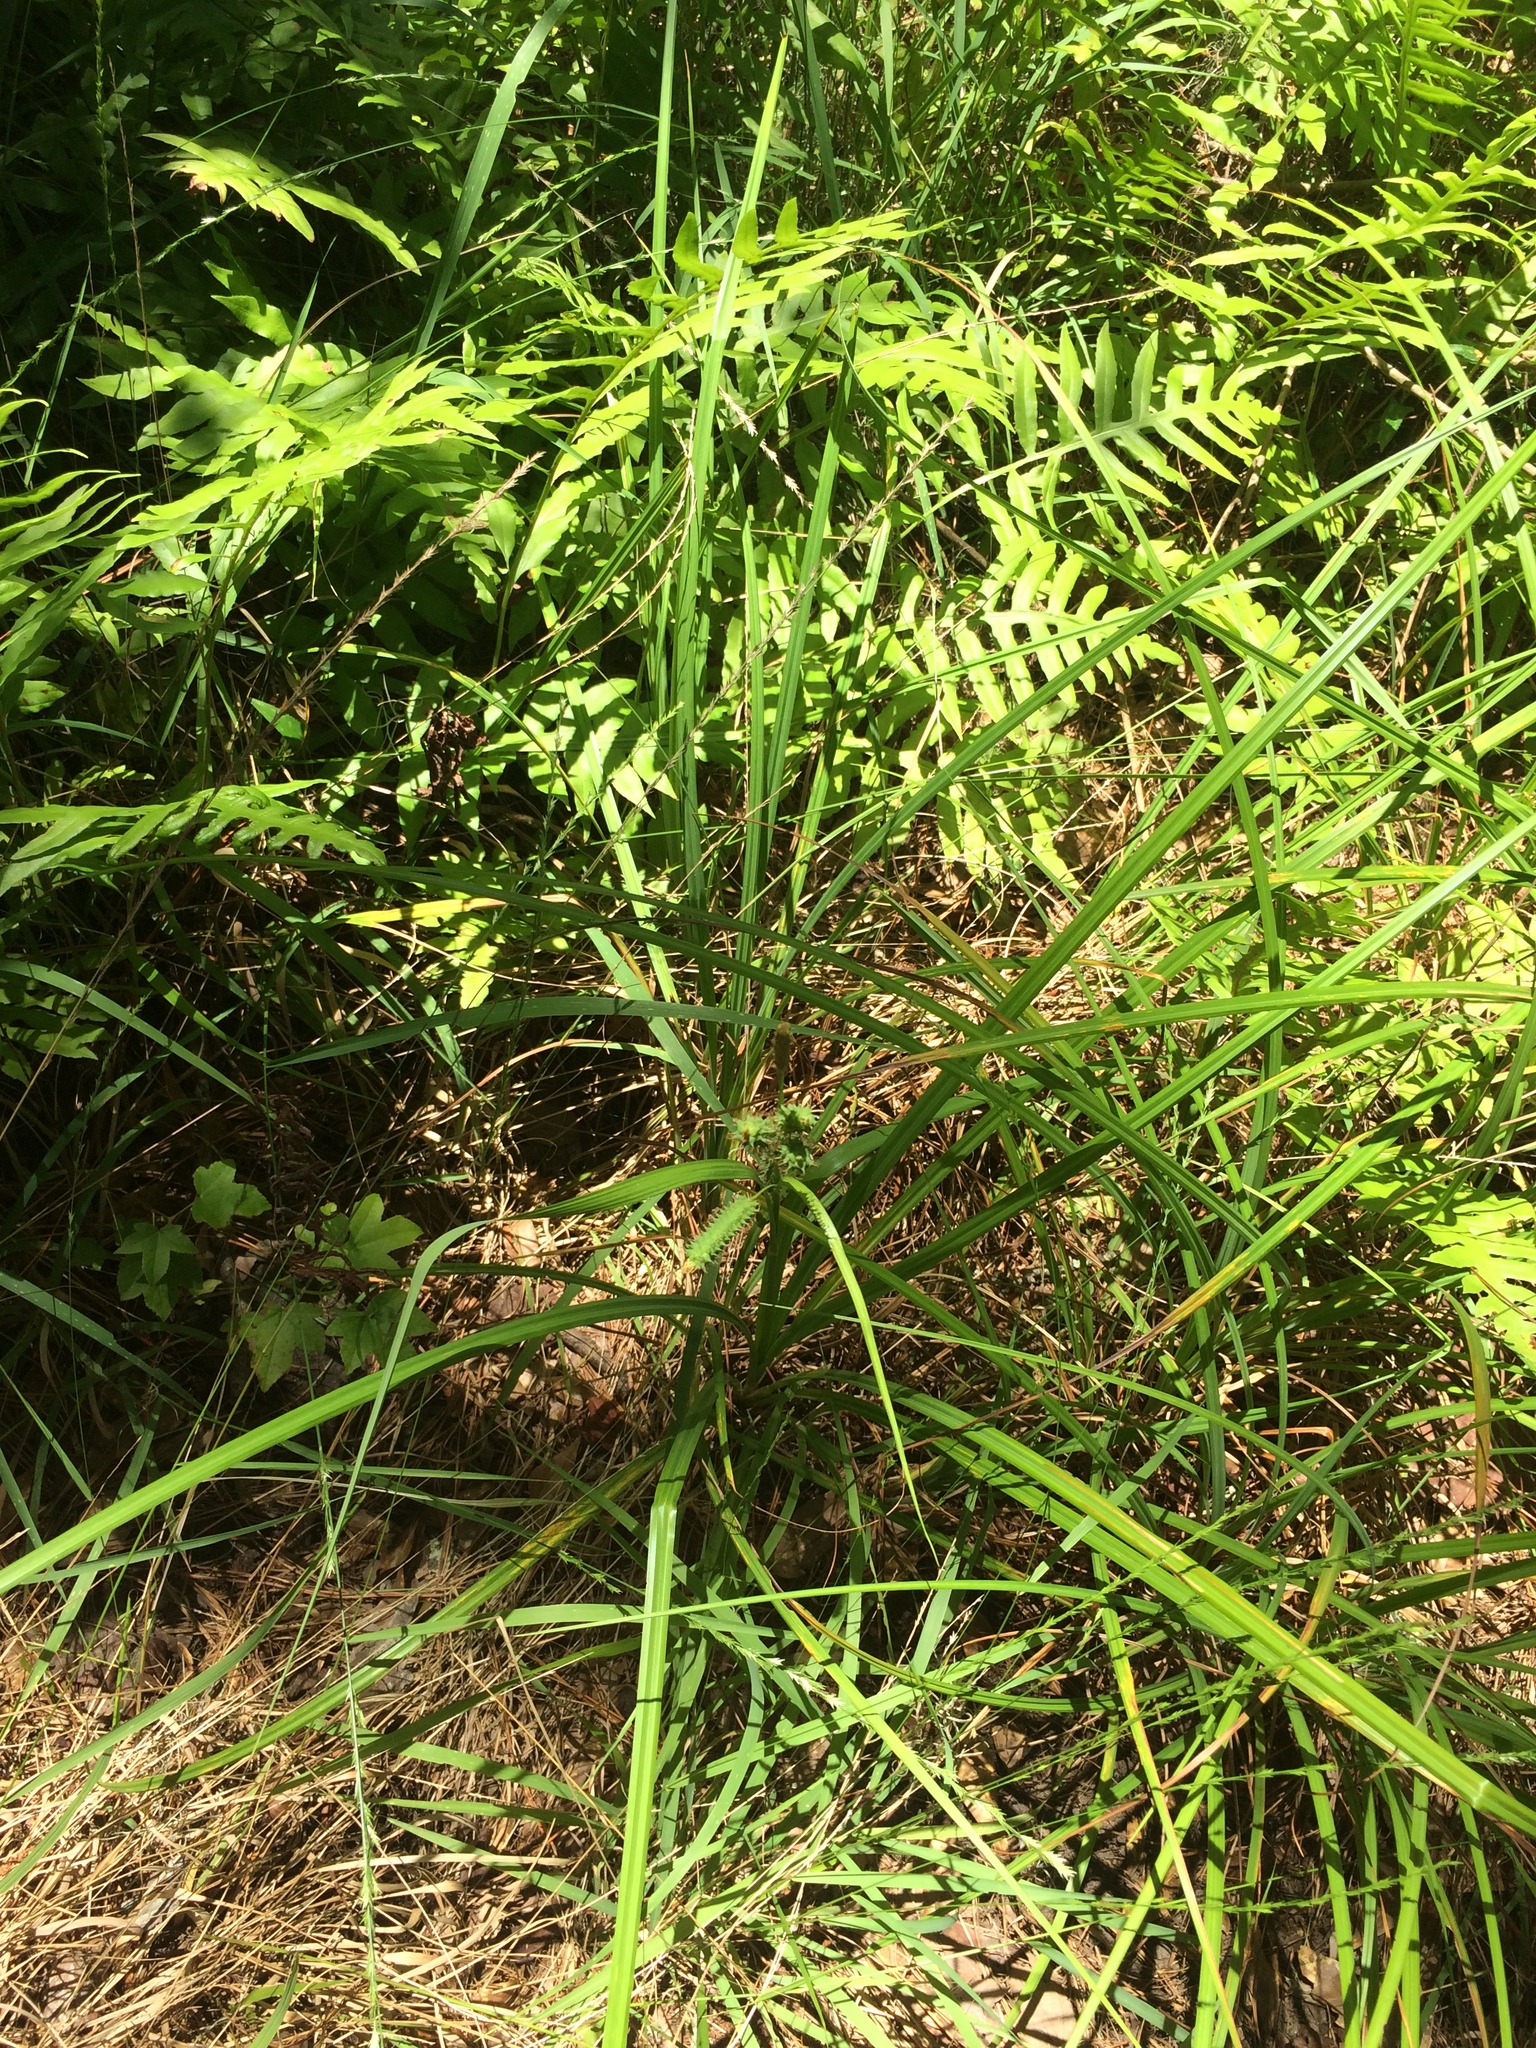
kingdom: Plantae
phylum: Tracheophyta
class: Polypodiopsida
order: Polypodiales
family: Blechnaceae
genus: Lorinseria
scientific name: Lorinseria areolata
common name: Dwarf chain fern
